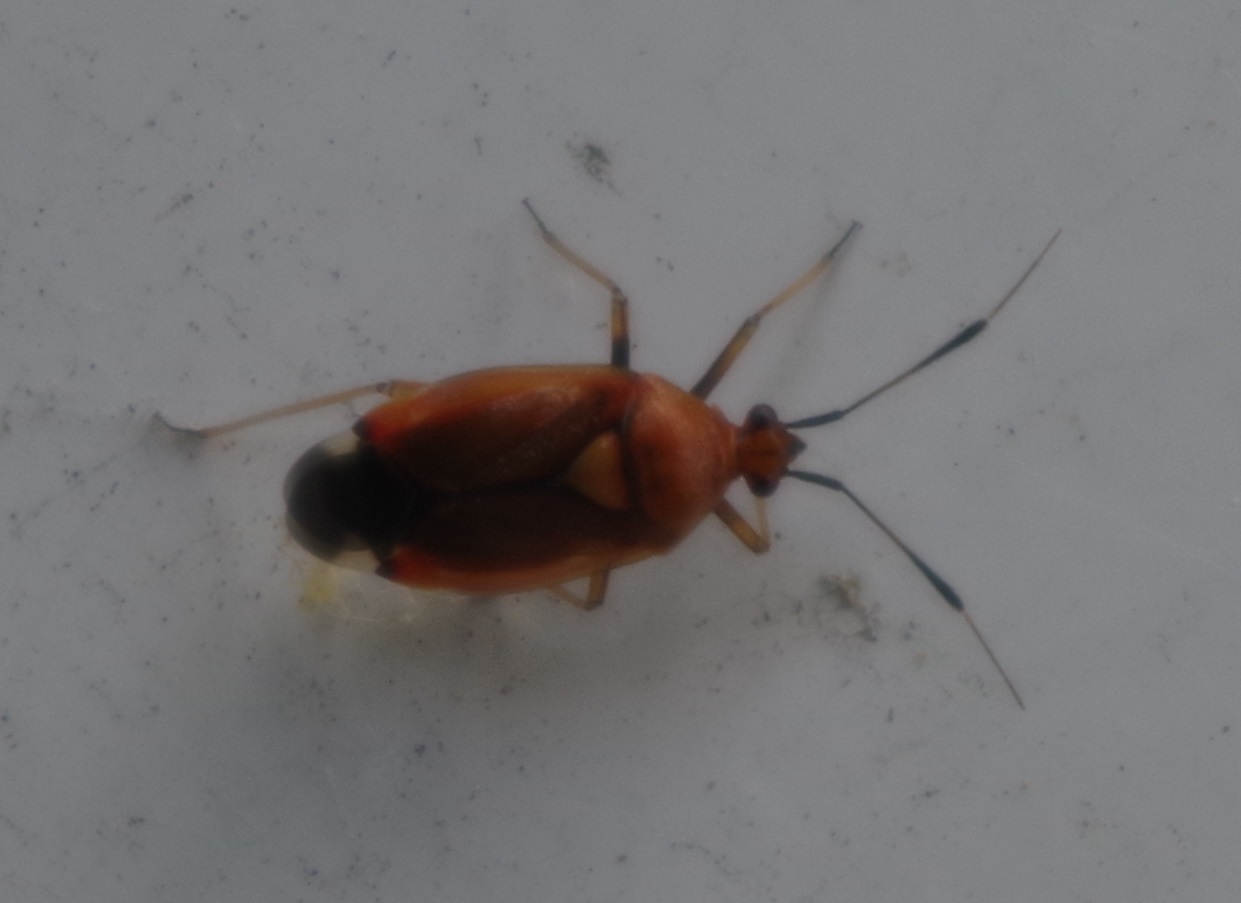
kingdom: Animalia
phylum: Arthropoda
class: Insecta
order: Hemiptera
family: Miridae
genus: Deraeocoris
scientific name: Deraeocoris ruber
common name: Plant bug
